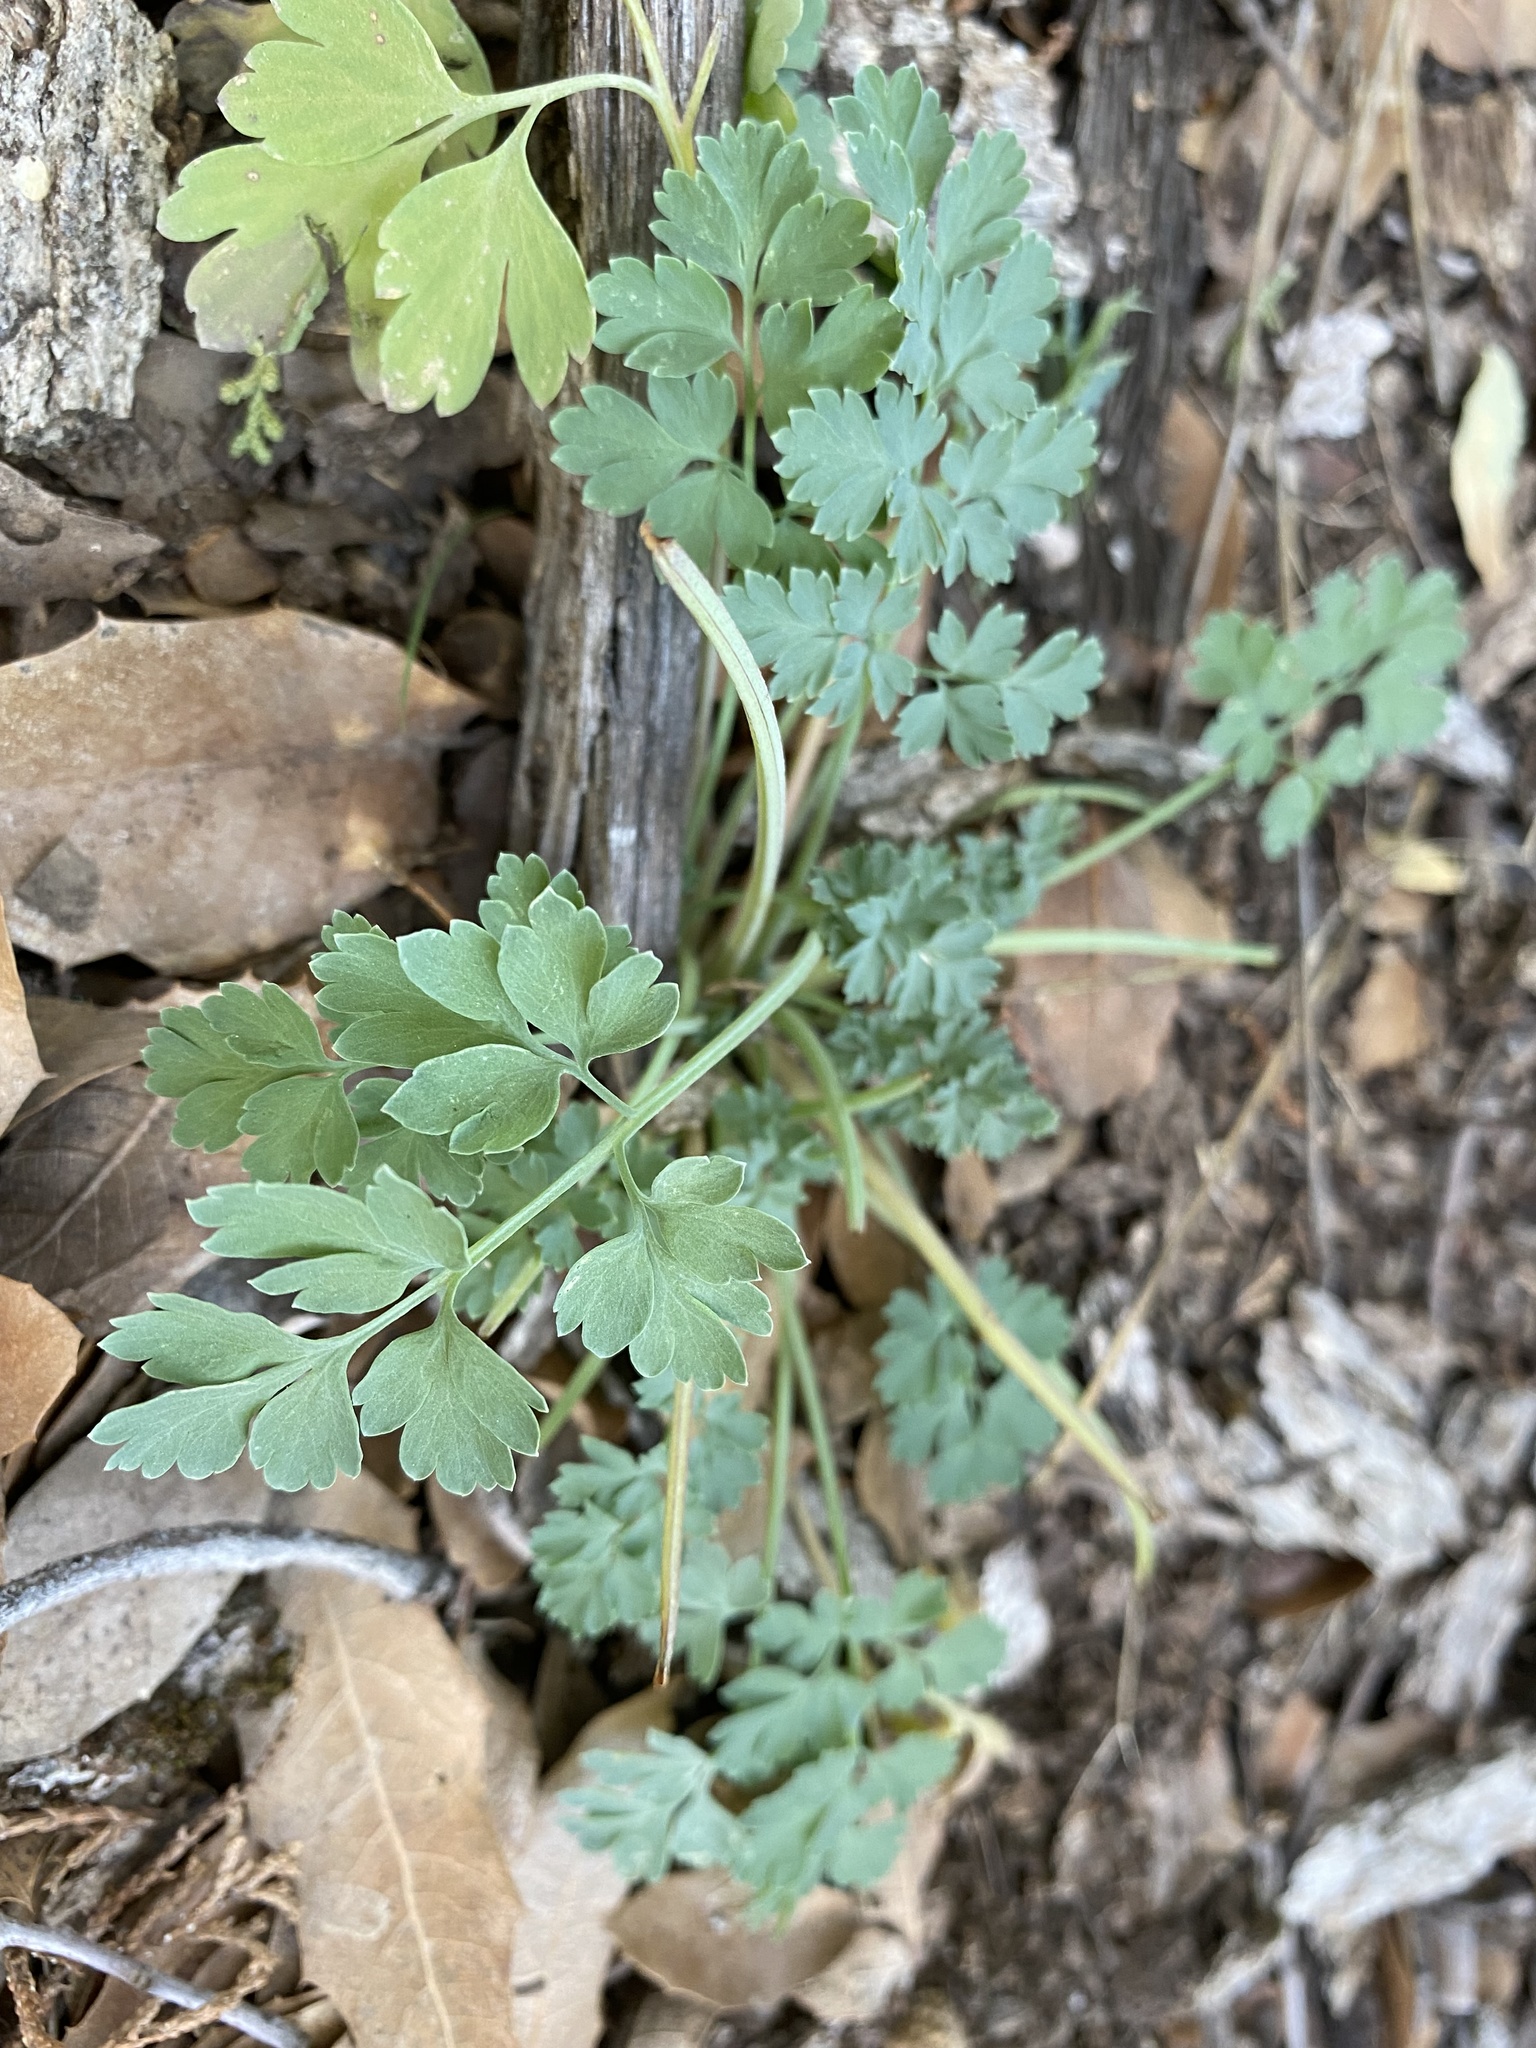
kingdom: Plantae
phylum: Tracheophyta
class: Magnoliopsida
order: Ranunculales
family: Papaveraceae
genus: Fumaria
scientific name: Fumaria
